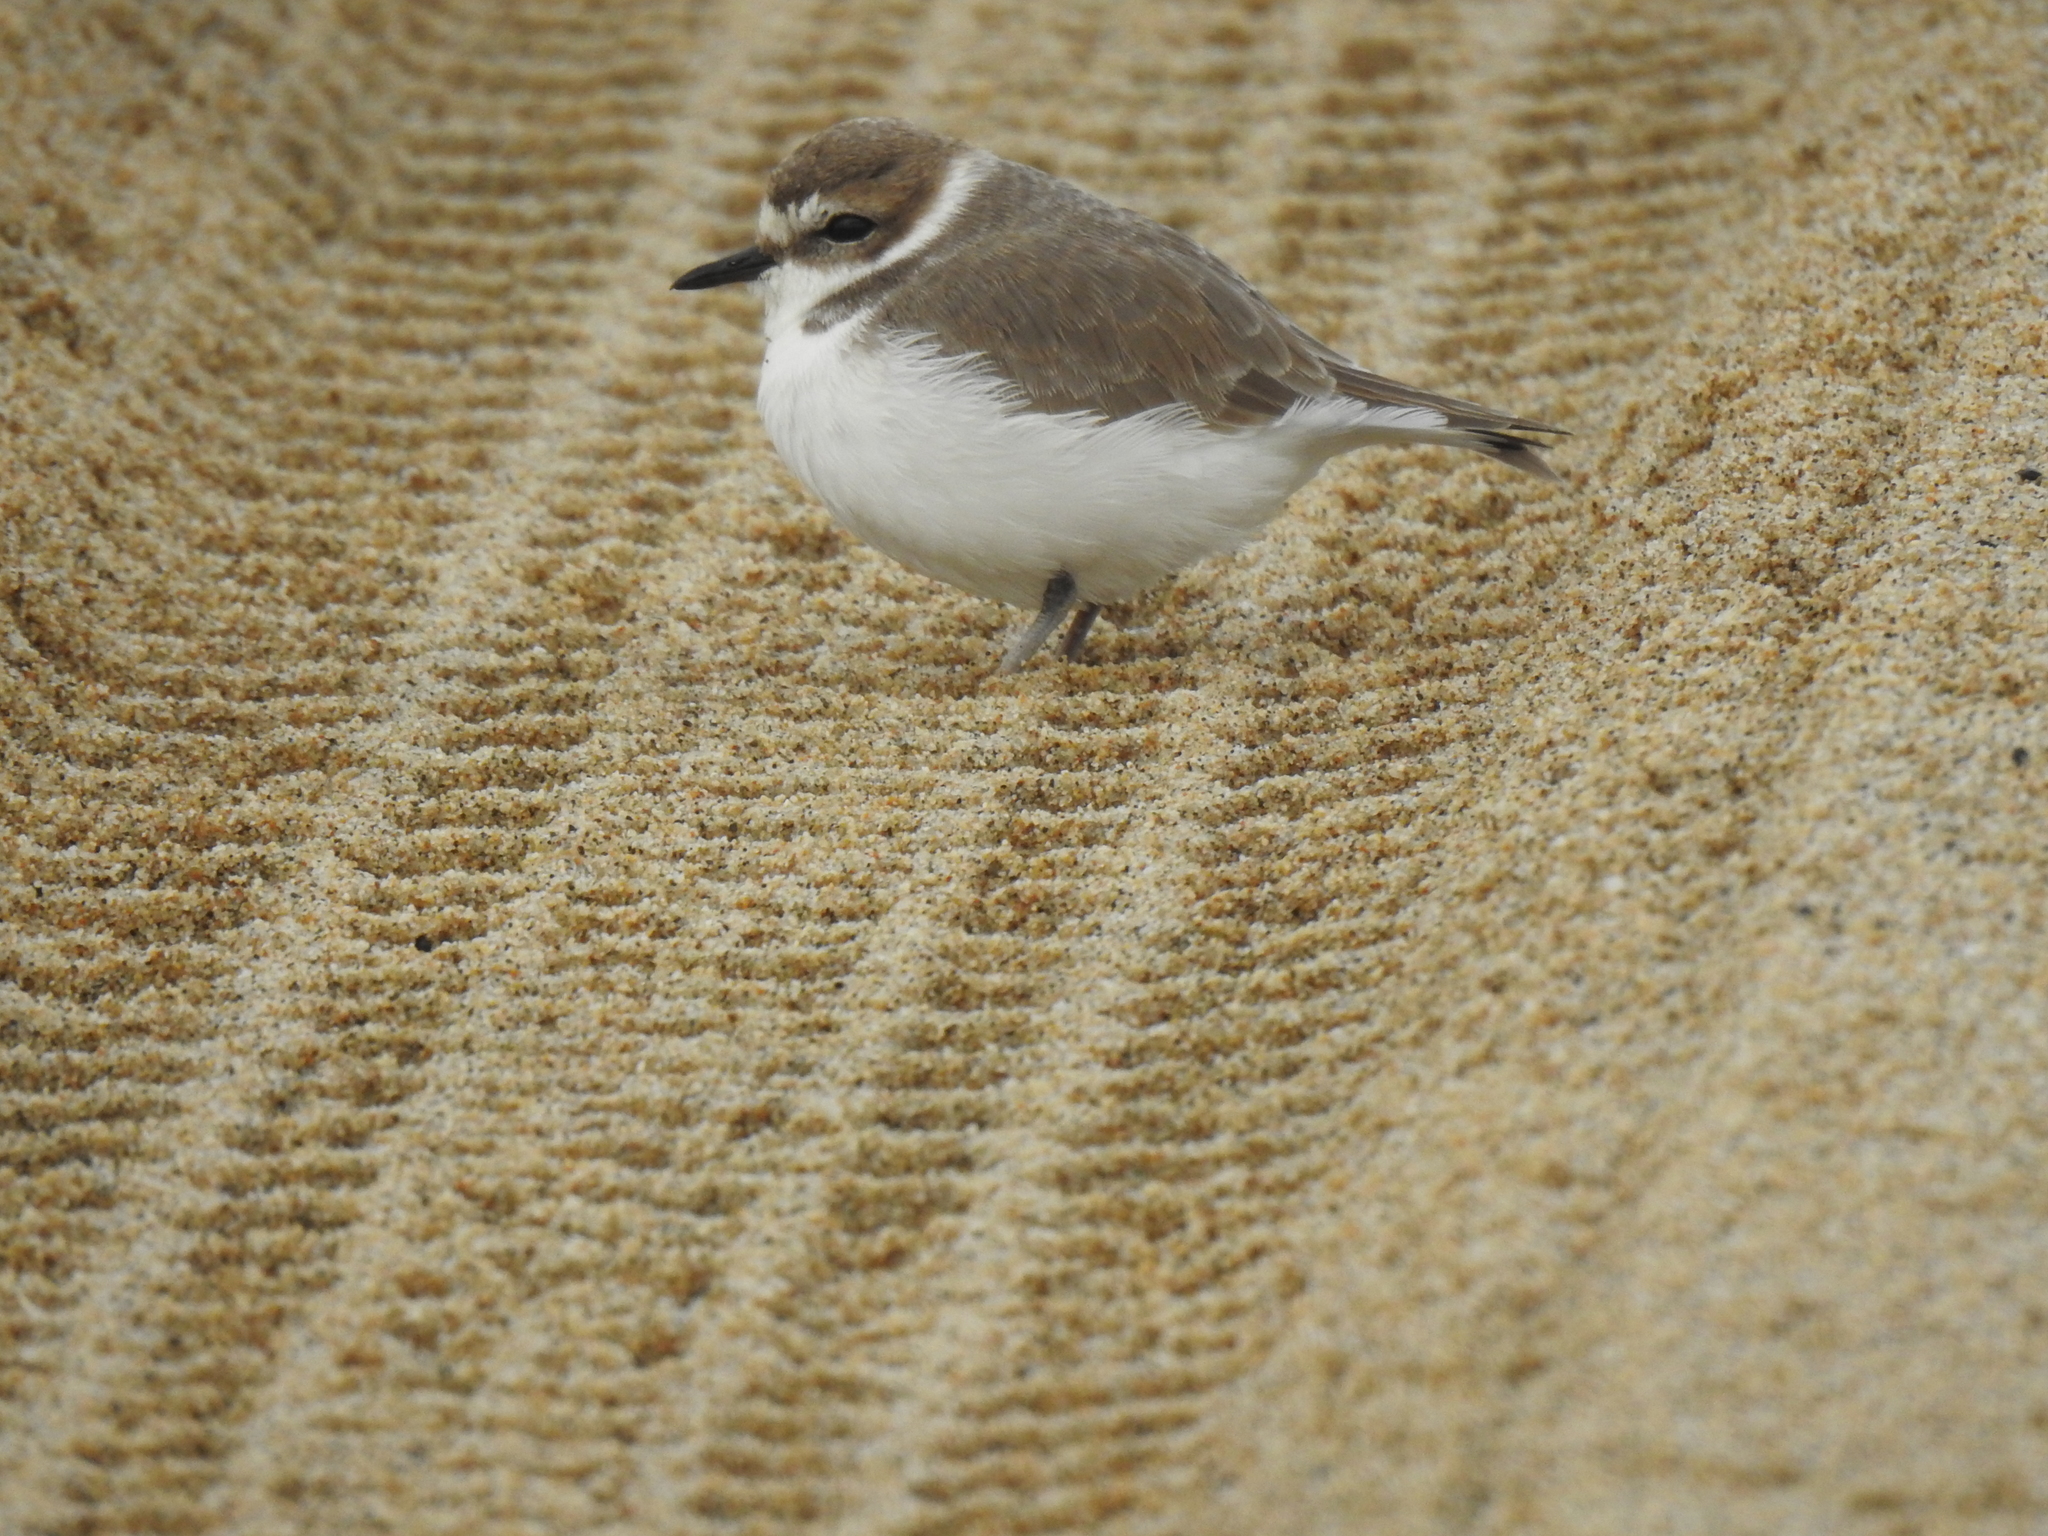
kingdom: Animalia
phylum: Chordata
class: Aves
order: Charadriiformes
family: Charadriidae
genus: Anarhynchus
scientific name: Anarhynchus
